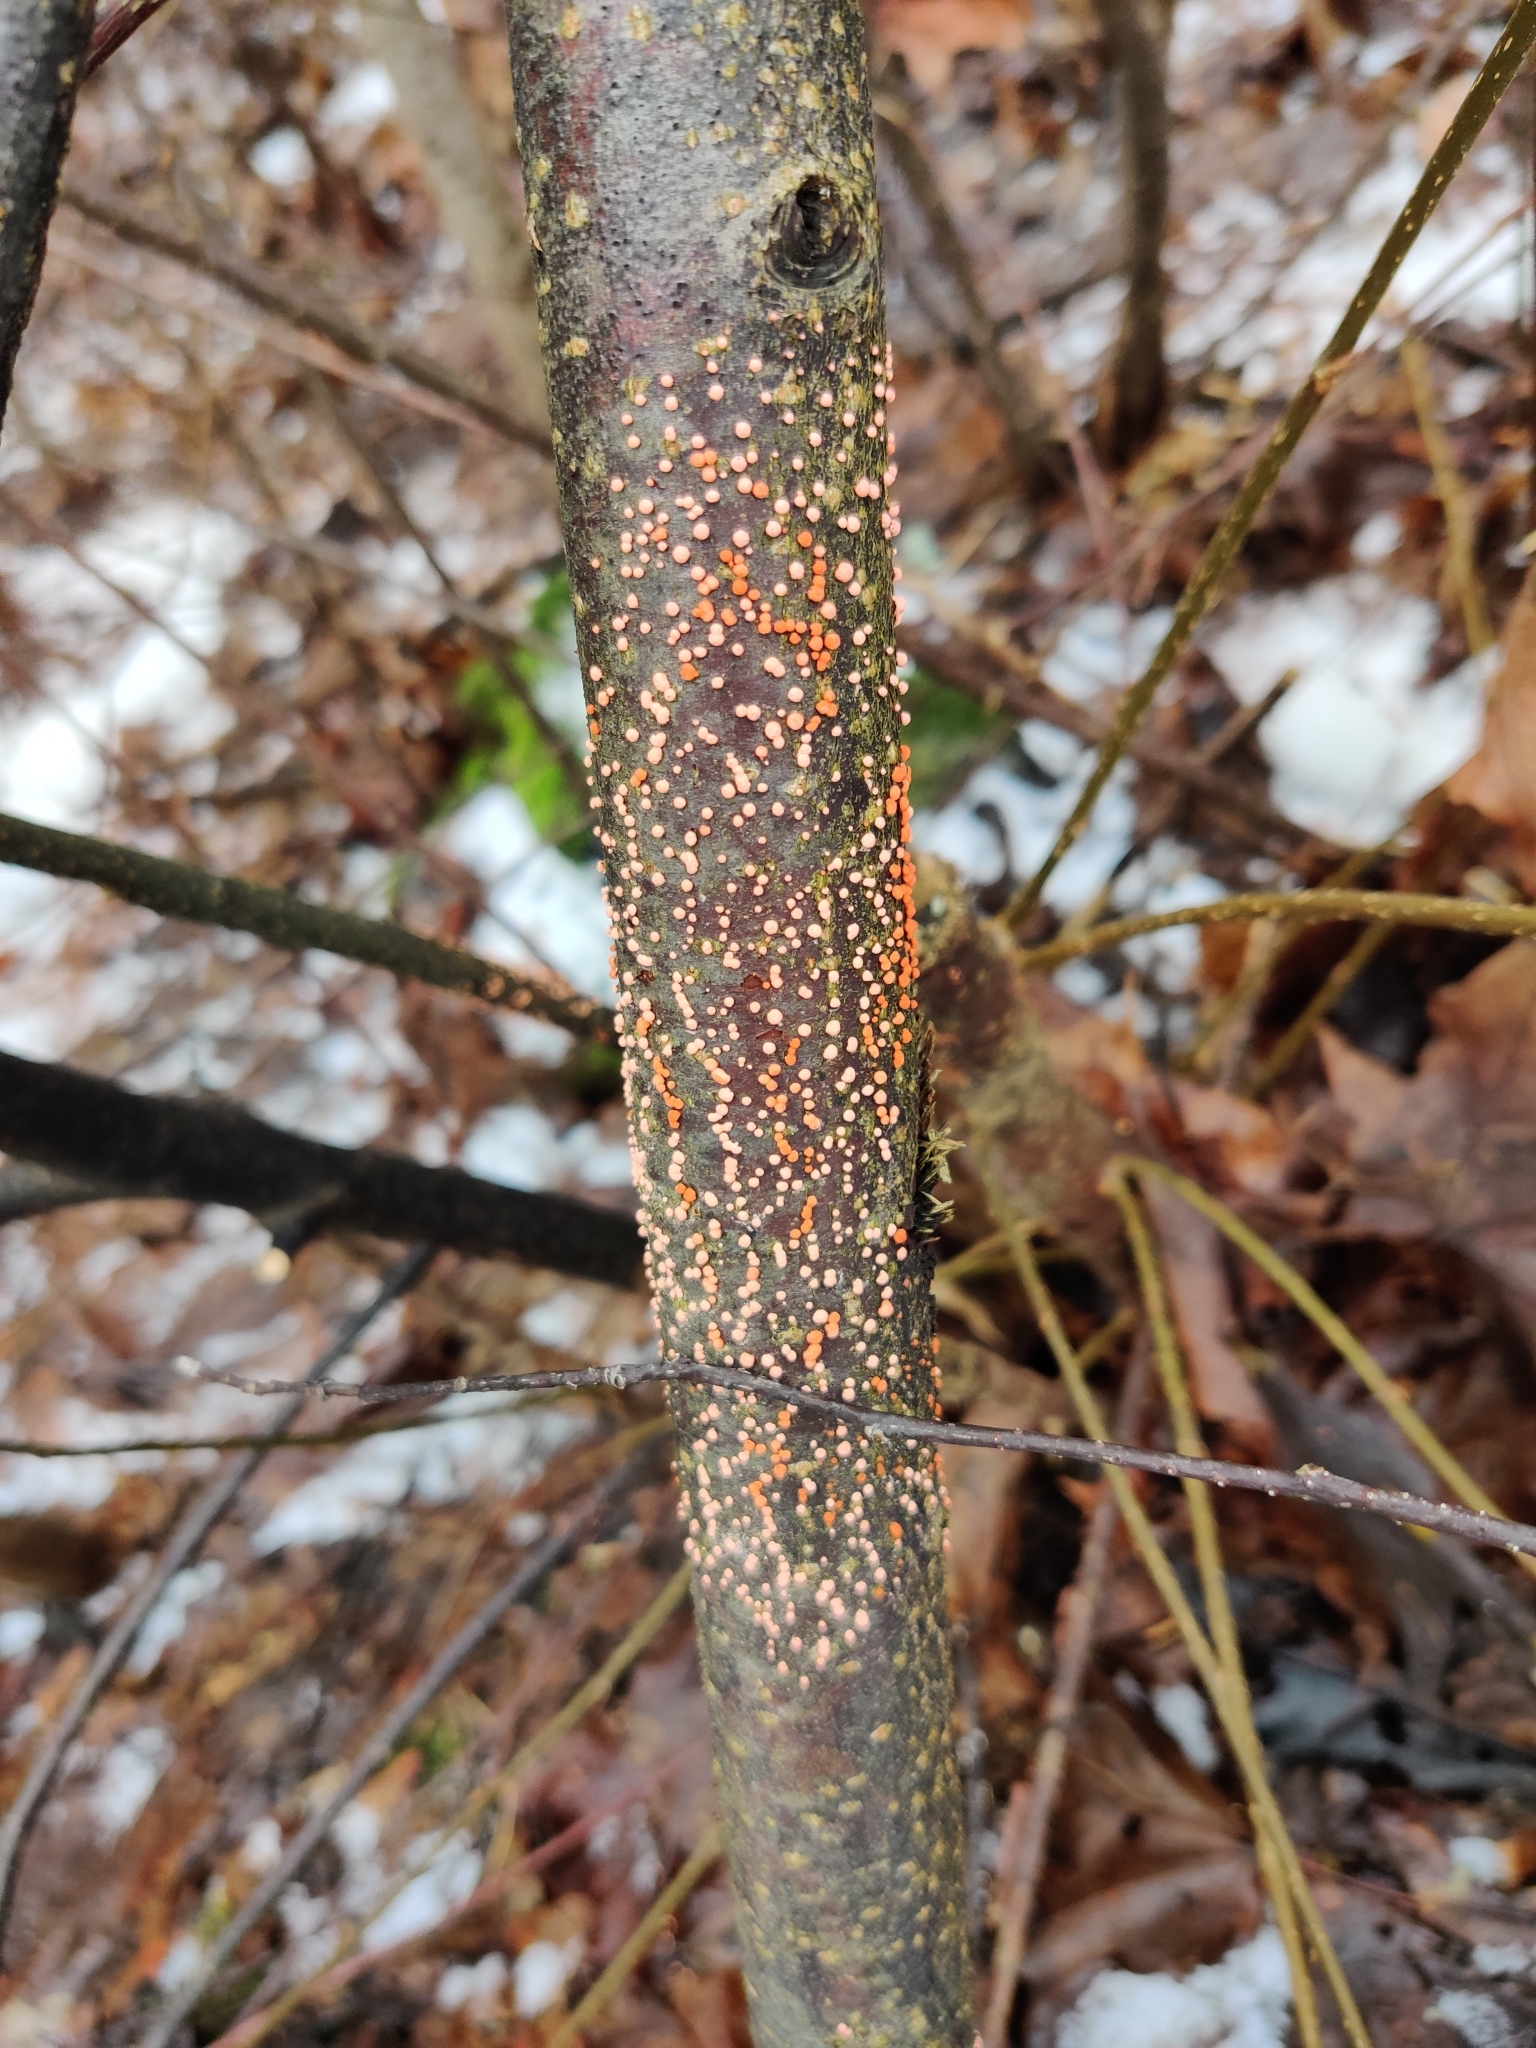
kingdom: Fungi
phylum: Ascomycota
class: Sordariomycetes
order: Hypocreales
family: Nectriaceae
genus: Nectria
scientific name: Nectria cinnabarina
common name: Coral spot
